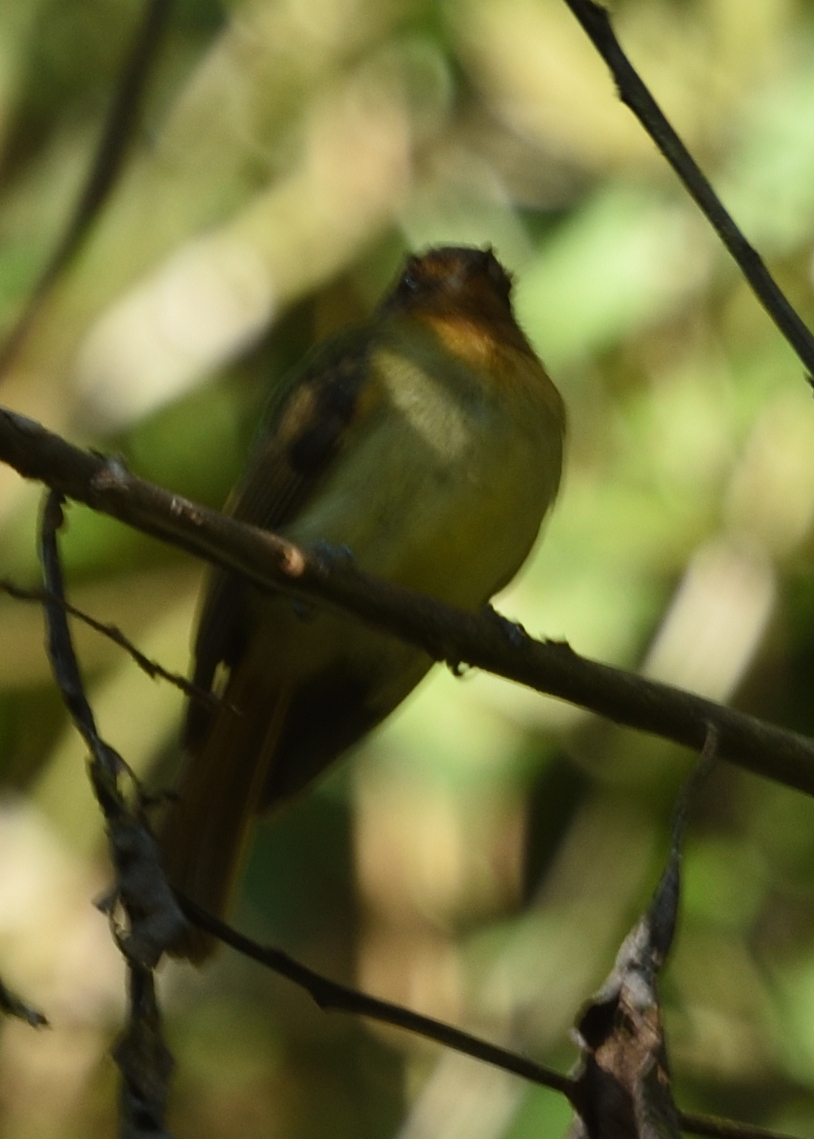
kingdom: Animalia
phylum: Chordata
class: Aves
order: Passeriformes
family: Tyrannidae
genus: Leptopogon
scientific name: Leptopogon rufipectus
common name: Rufous-breasted flycatcher
